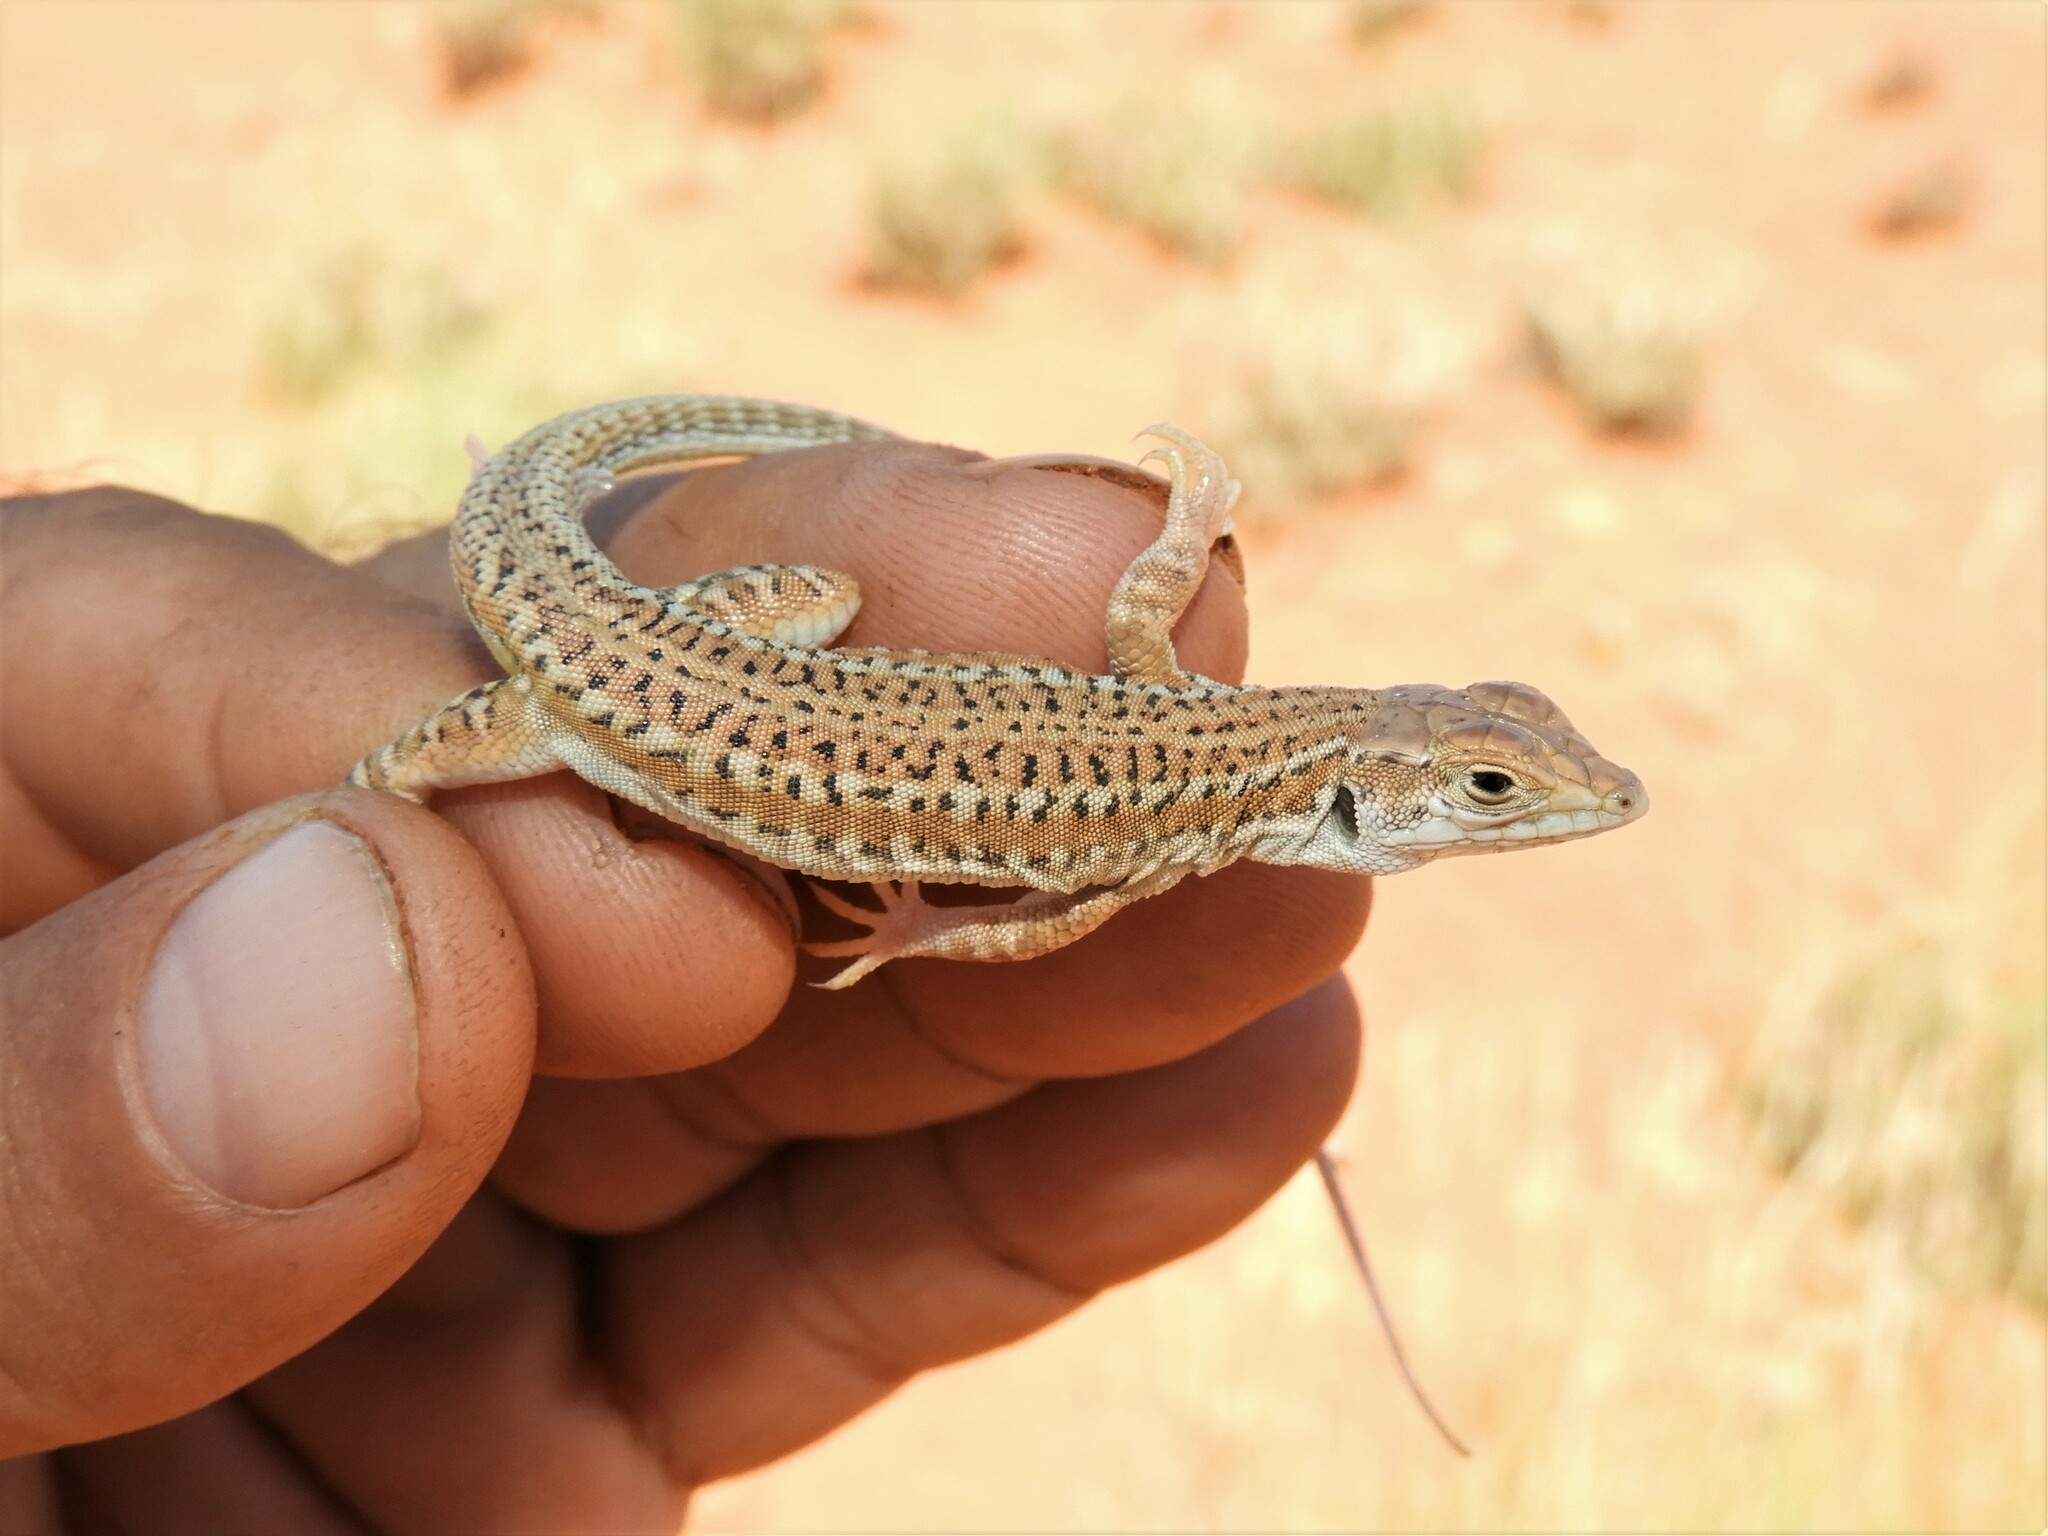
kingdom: Animalia
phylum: Chordata
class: Squamata
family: Lacertidae
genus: Meroles
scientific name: Meroles suborbitalis
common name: Spotted sand lizard
